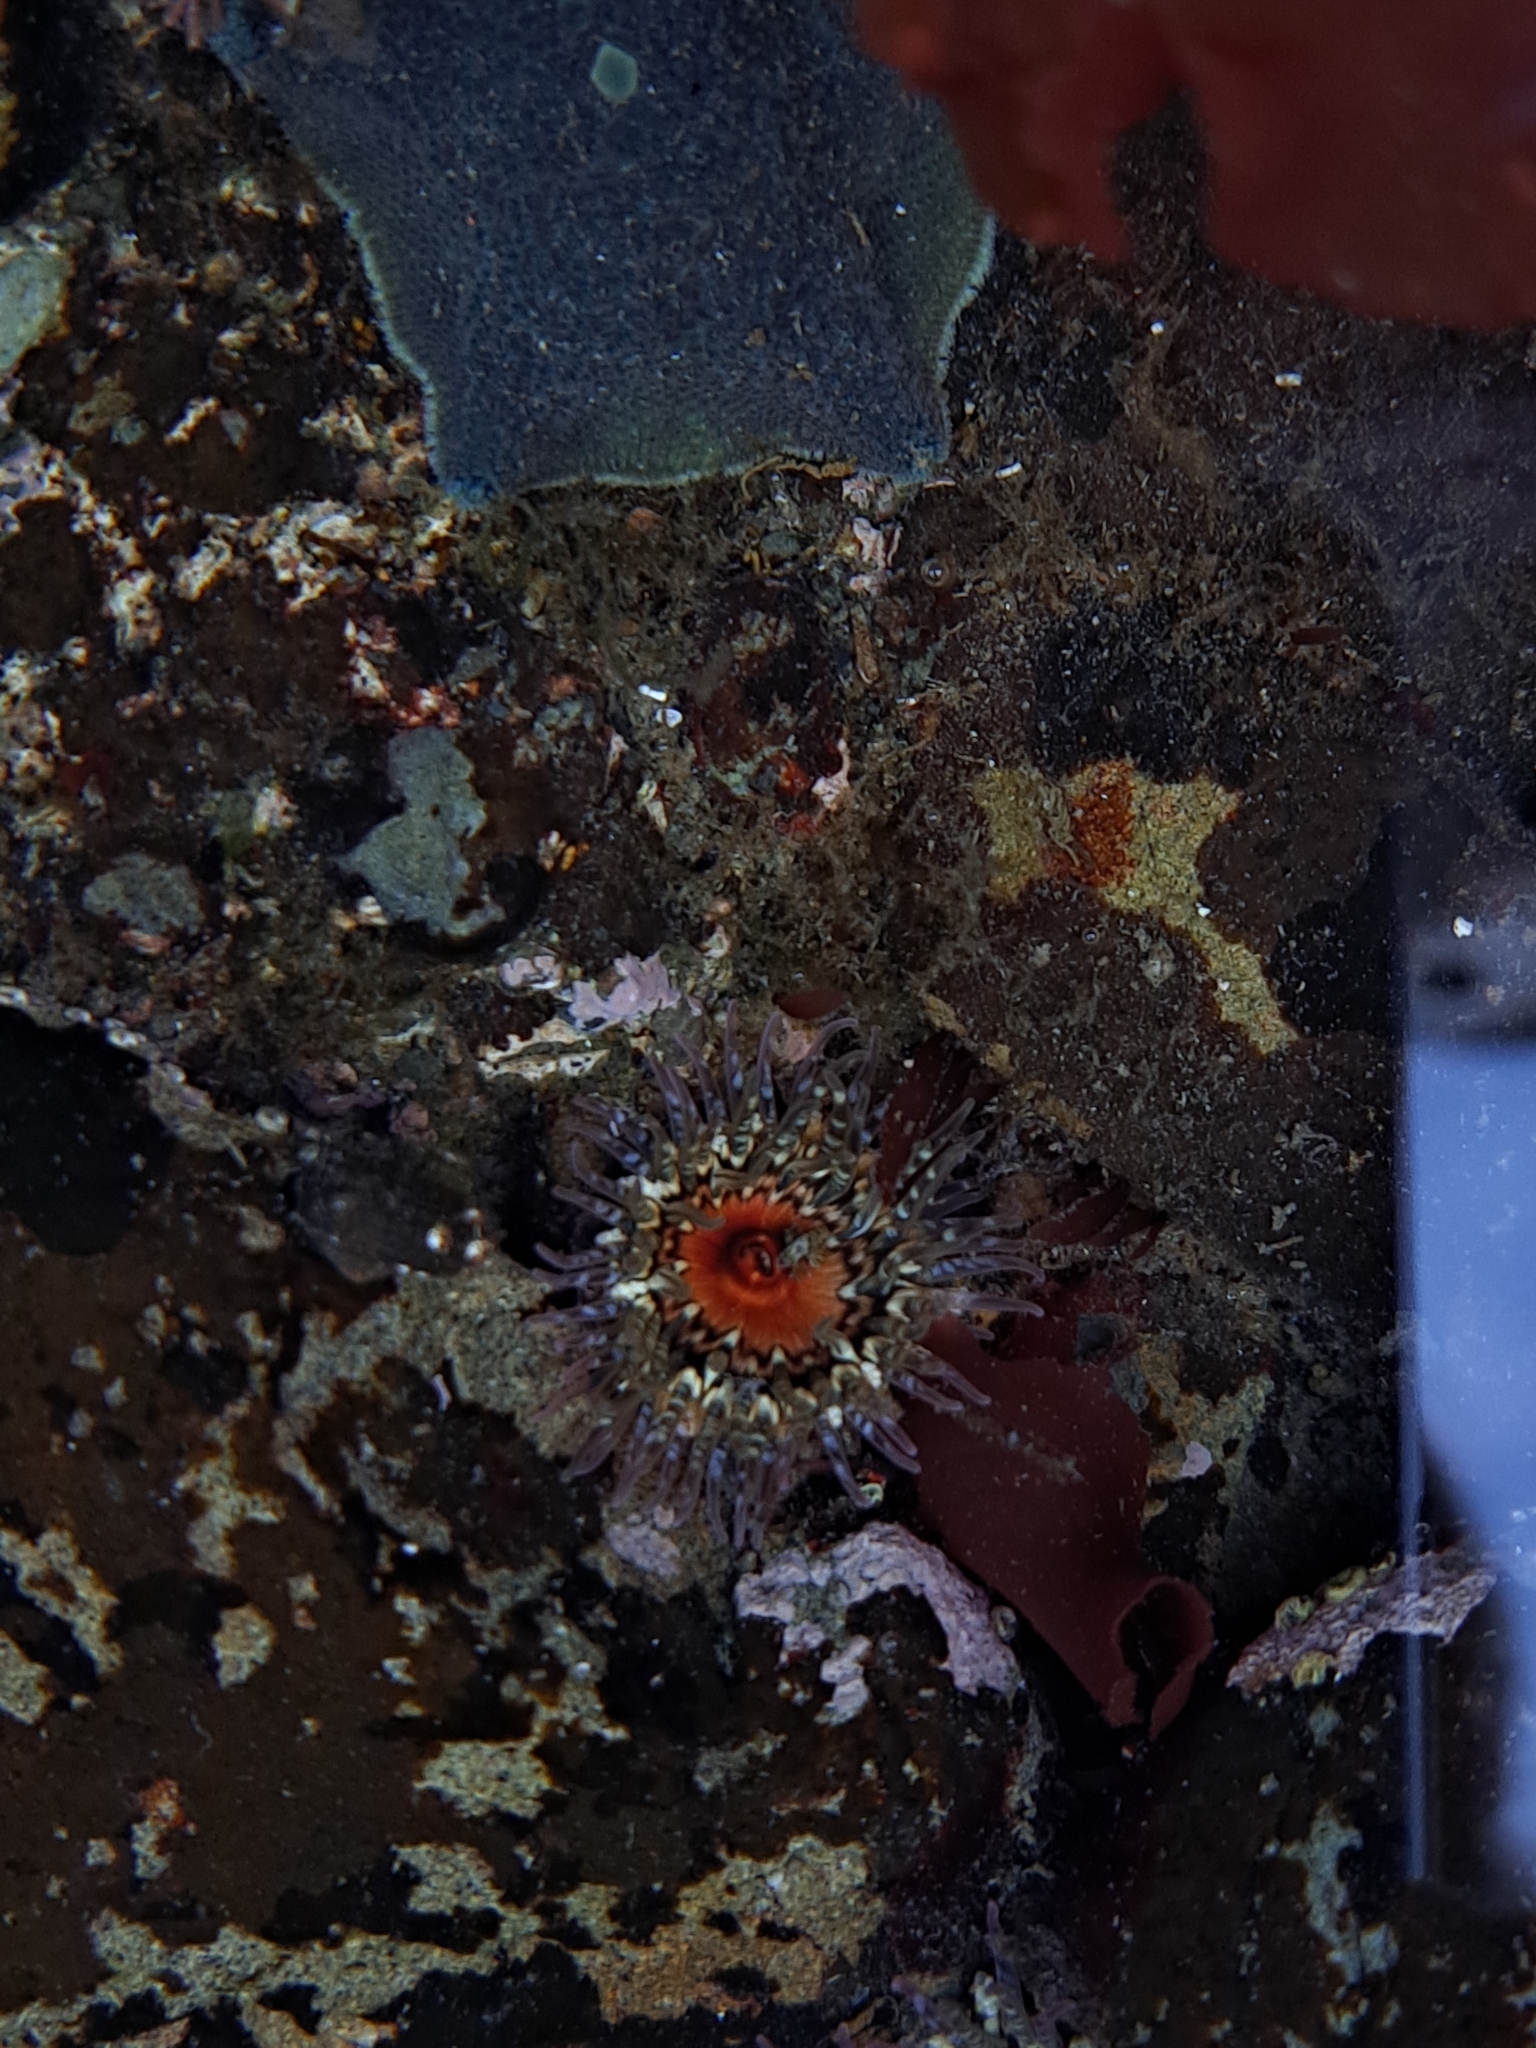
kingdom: Animalia
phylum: Cnidaria
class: Anthozoa
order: Actiniaria
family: Actiniidae
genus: Oulactis
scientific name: Oulactis muscosa
